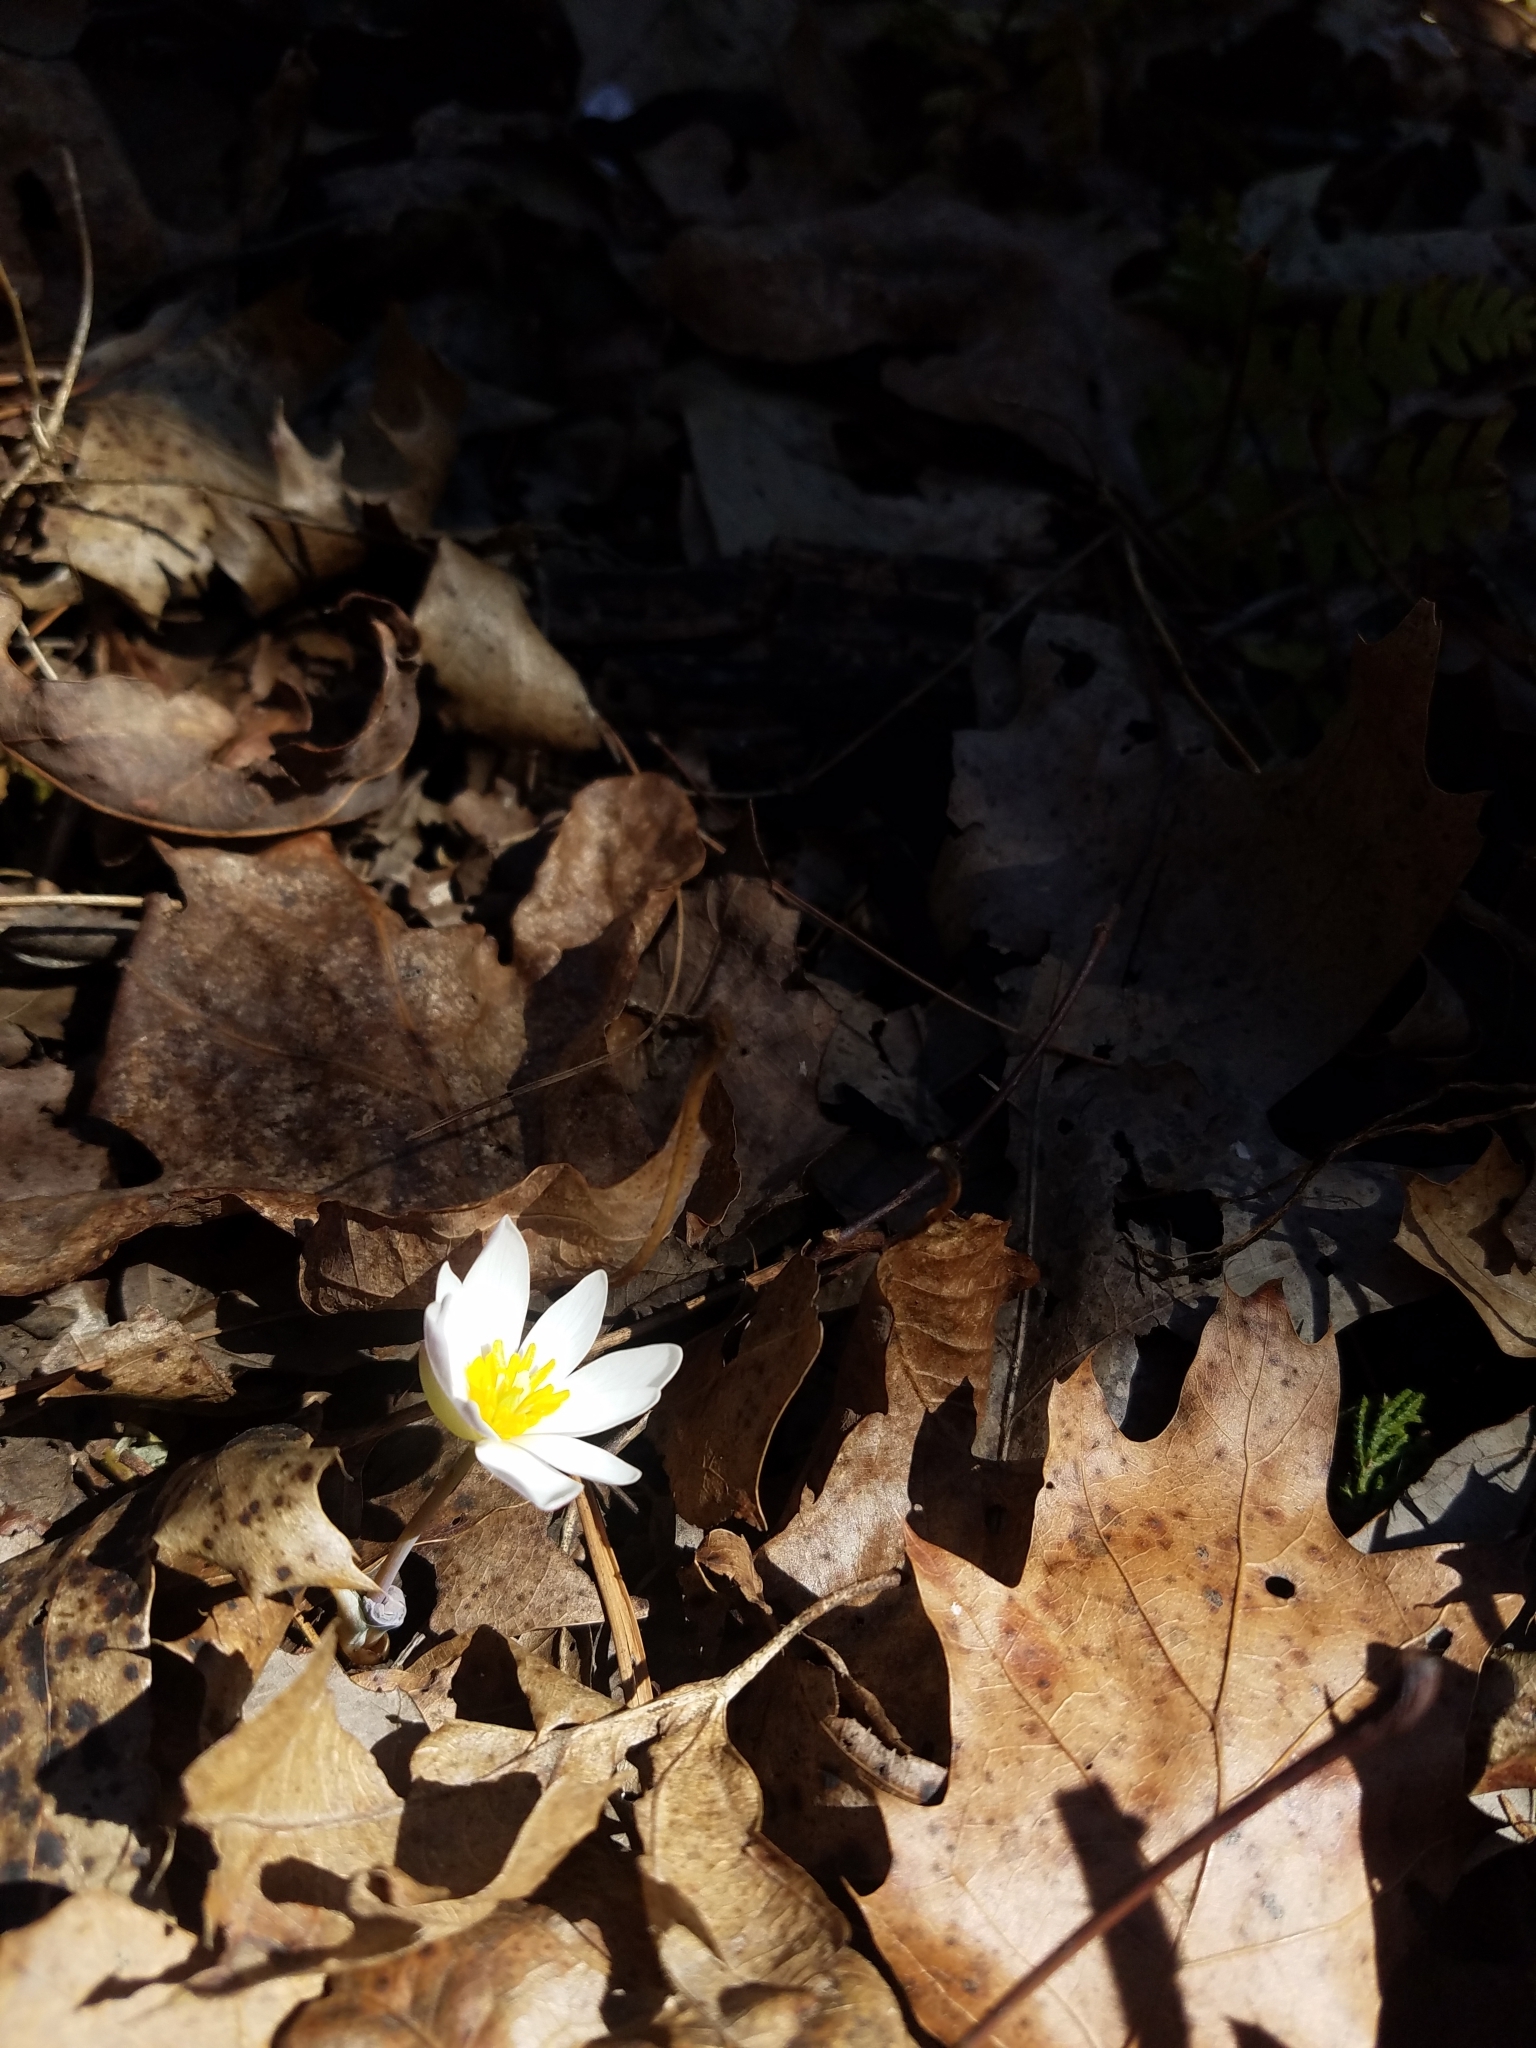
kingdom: Plantae
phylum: Tracheophyta
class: Magnoliopsida
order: Ranunculales
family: Papaveraceae
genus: Sanguinaria
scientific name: Sanguinaria canadensis
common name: Bloodroot
